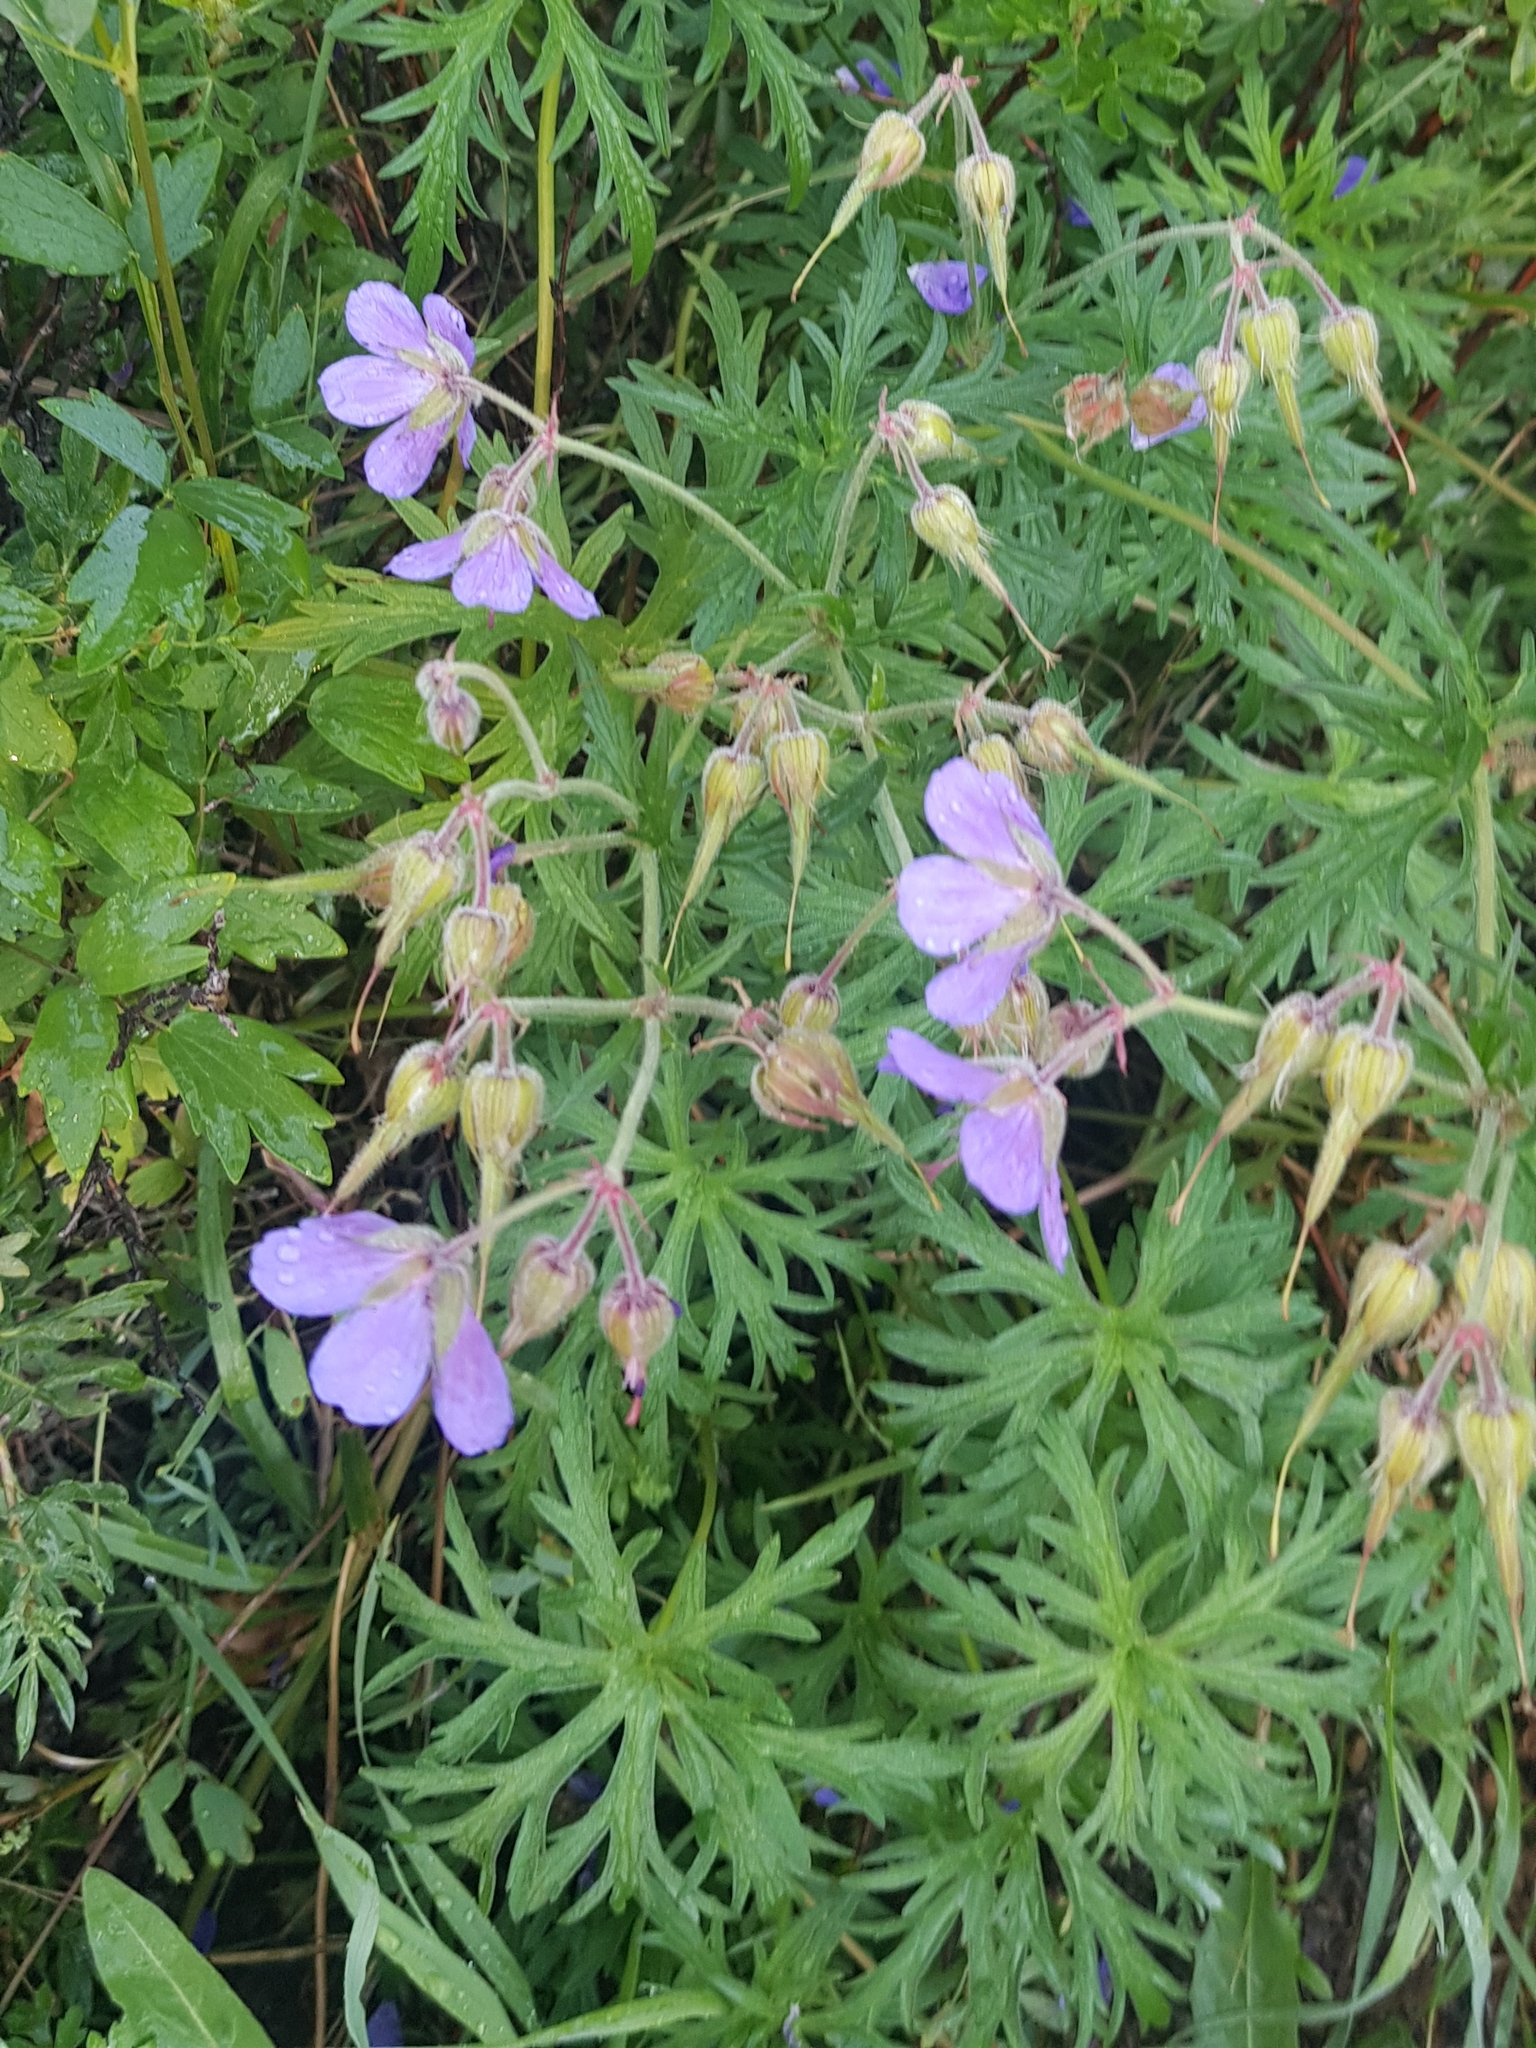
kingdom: Plantae
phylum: Tracheophyta
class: Magnoliopsida
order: Geraniales
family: Geraniaceae
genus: Geranium
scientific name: Geranium pratense
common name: Meadow crane's-bill
